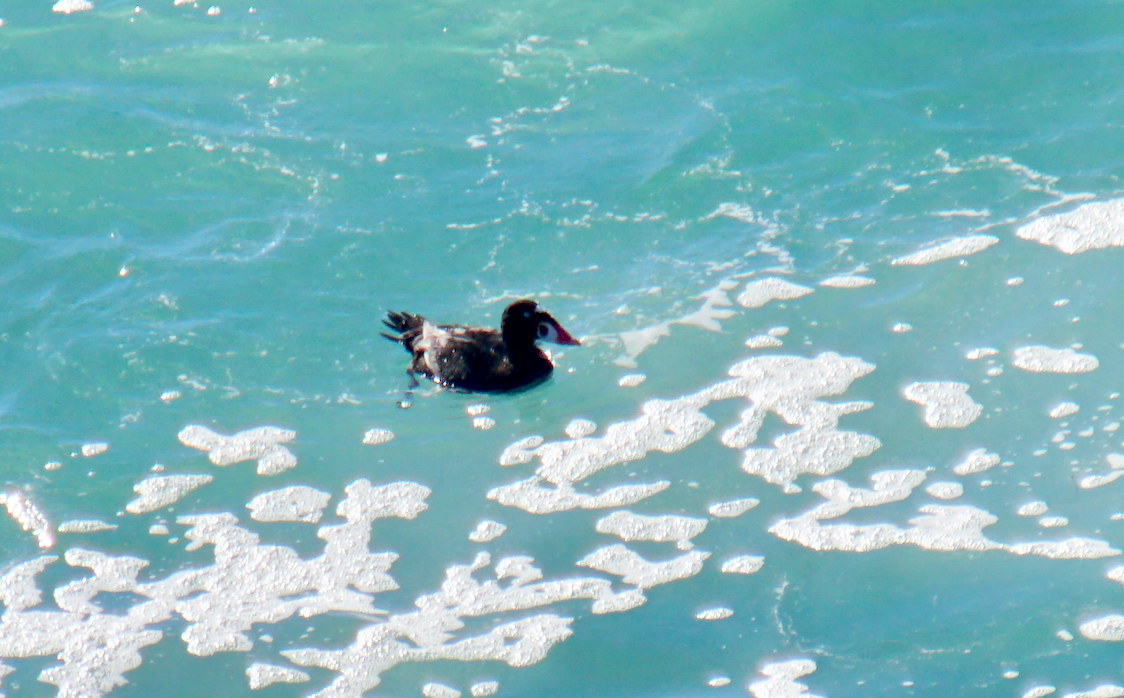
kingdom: Animalia
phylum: Chordata
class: Aves
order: Anseriformes
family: Anatidae
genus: Melanitta
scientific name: Melanitta perspicillata
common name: Surf scoter
